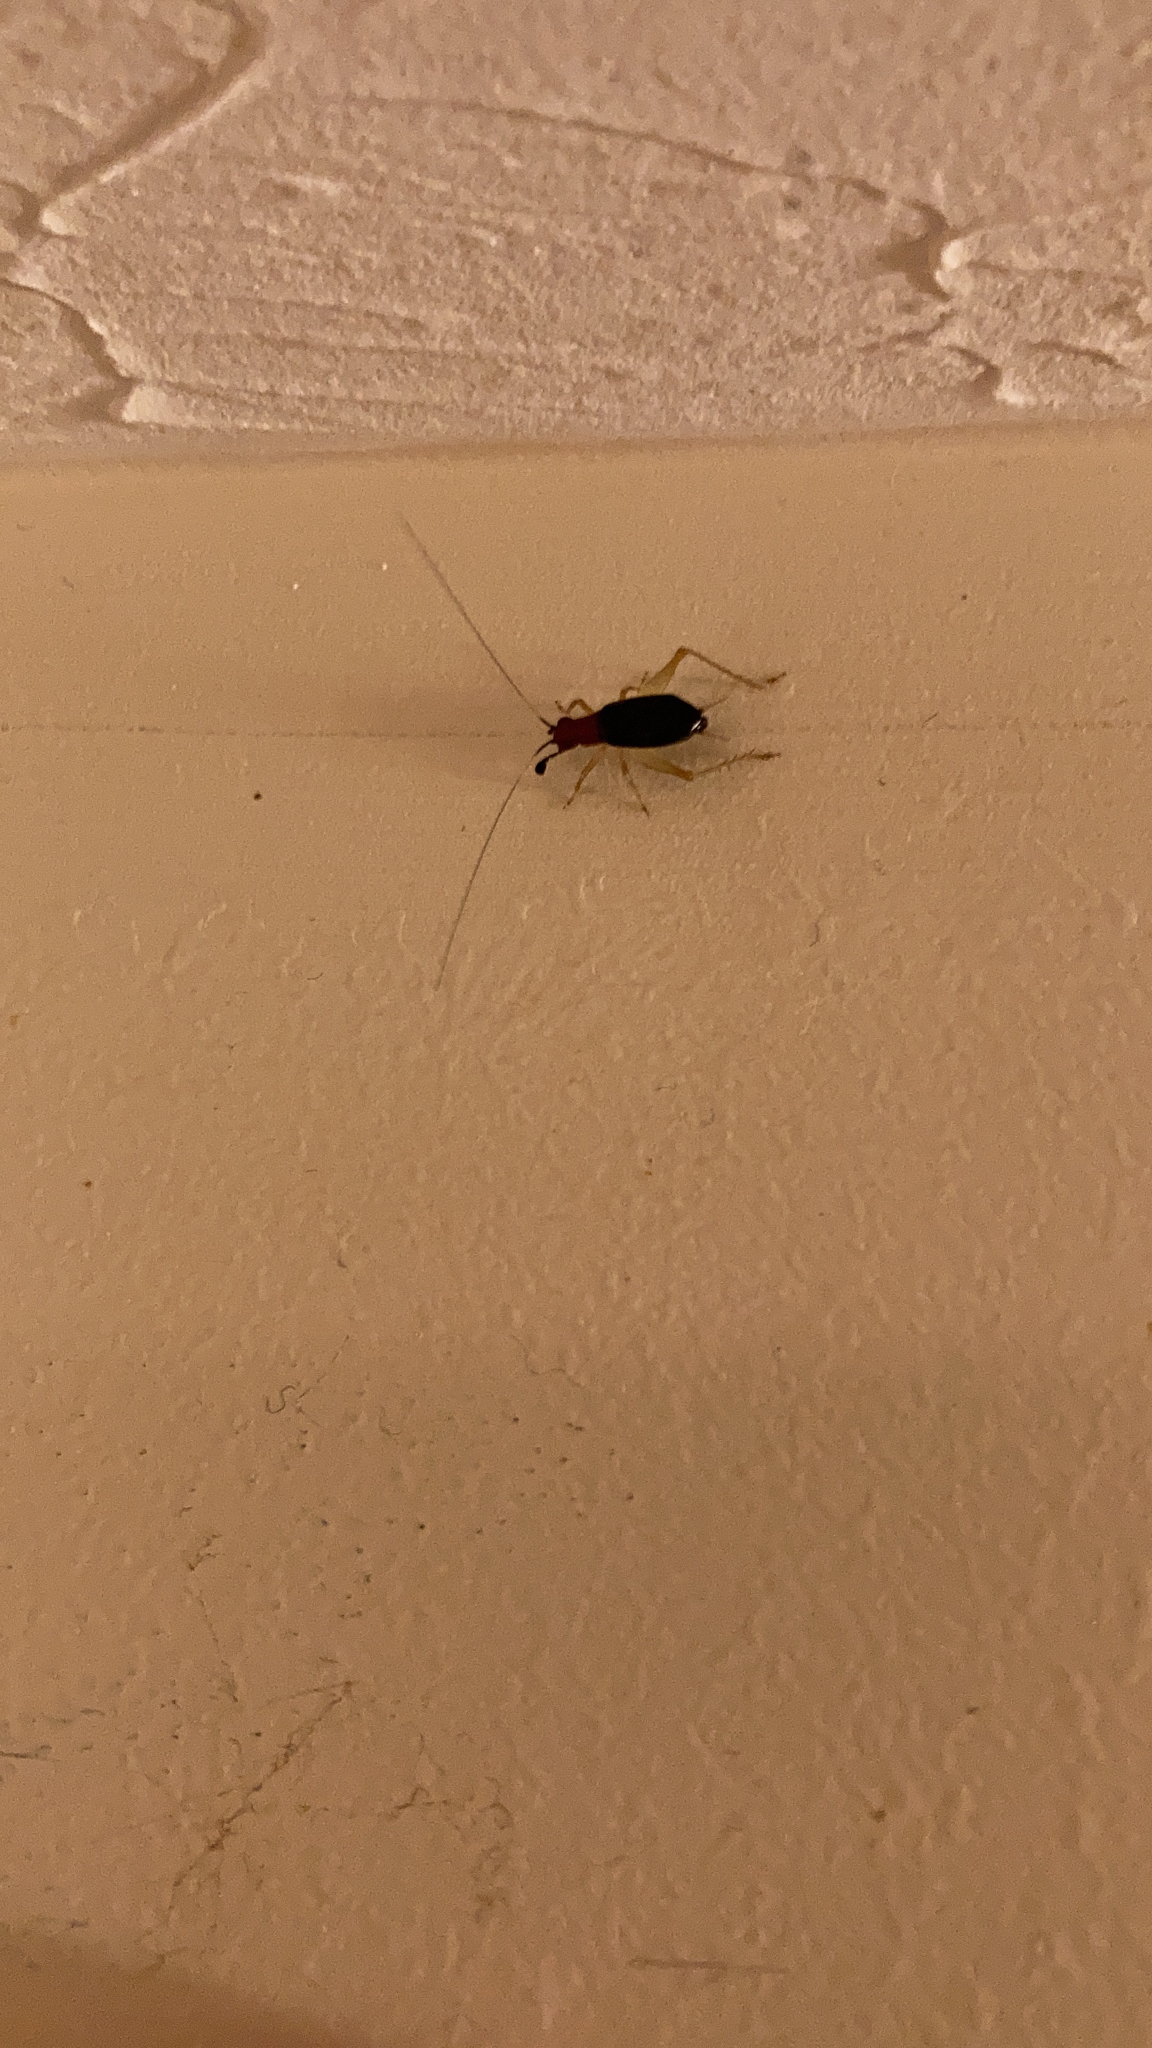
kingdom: Animalia
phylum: Arthropoda
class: Insecta
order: Orthoptera
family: Trigonidiidae
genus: Phyllopalpus
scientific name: Phyllopalpus pulchellus
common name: Handsome trig
